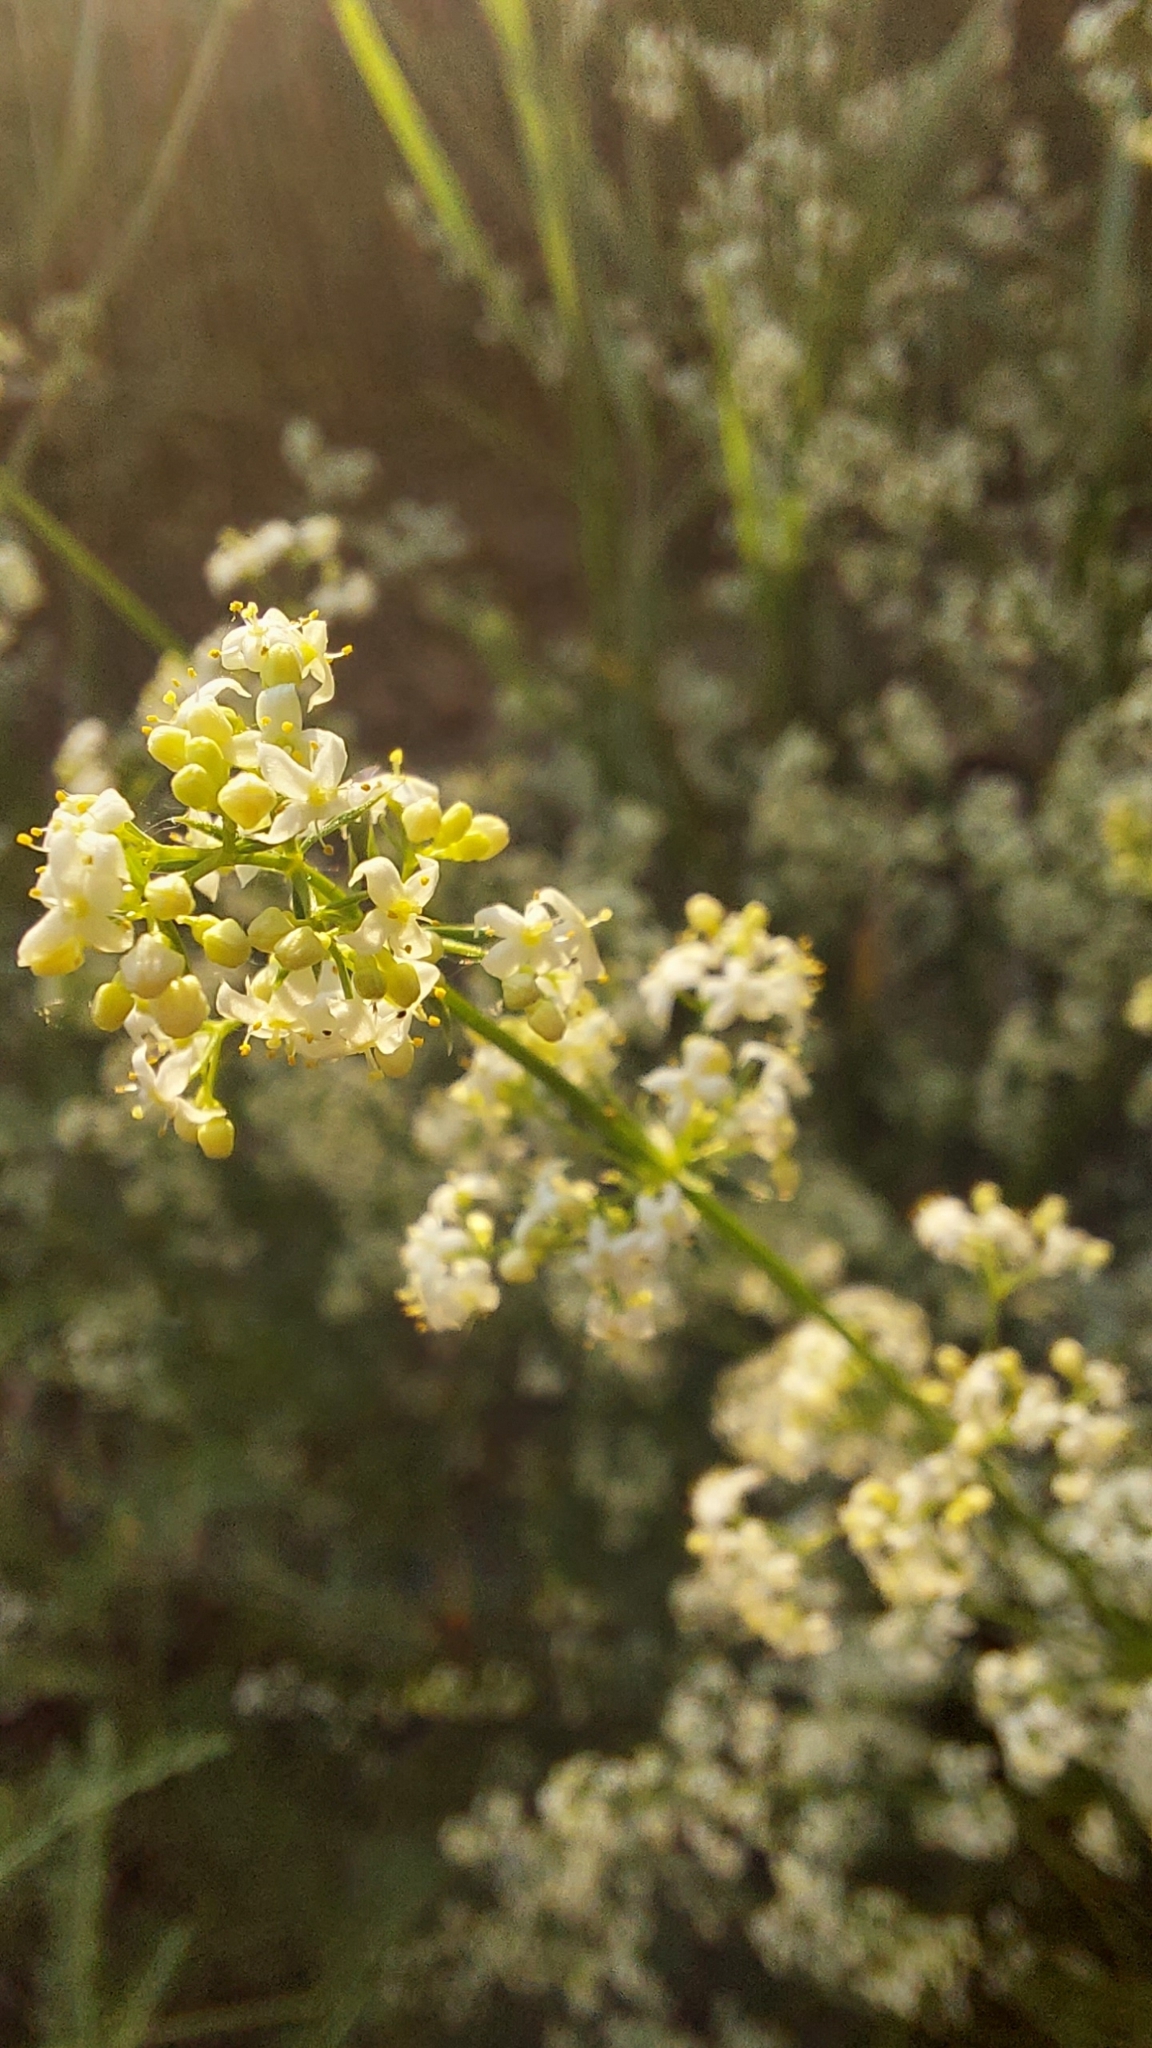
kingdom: Plantae
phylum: Tracheophyta
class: Magnoliopsida
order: Gentianales
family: Rubiaceae
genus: Galium
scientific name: Galium mollugo
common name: Hedge bedstraw
